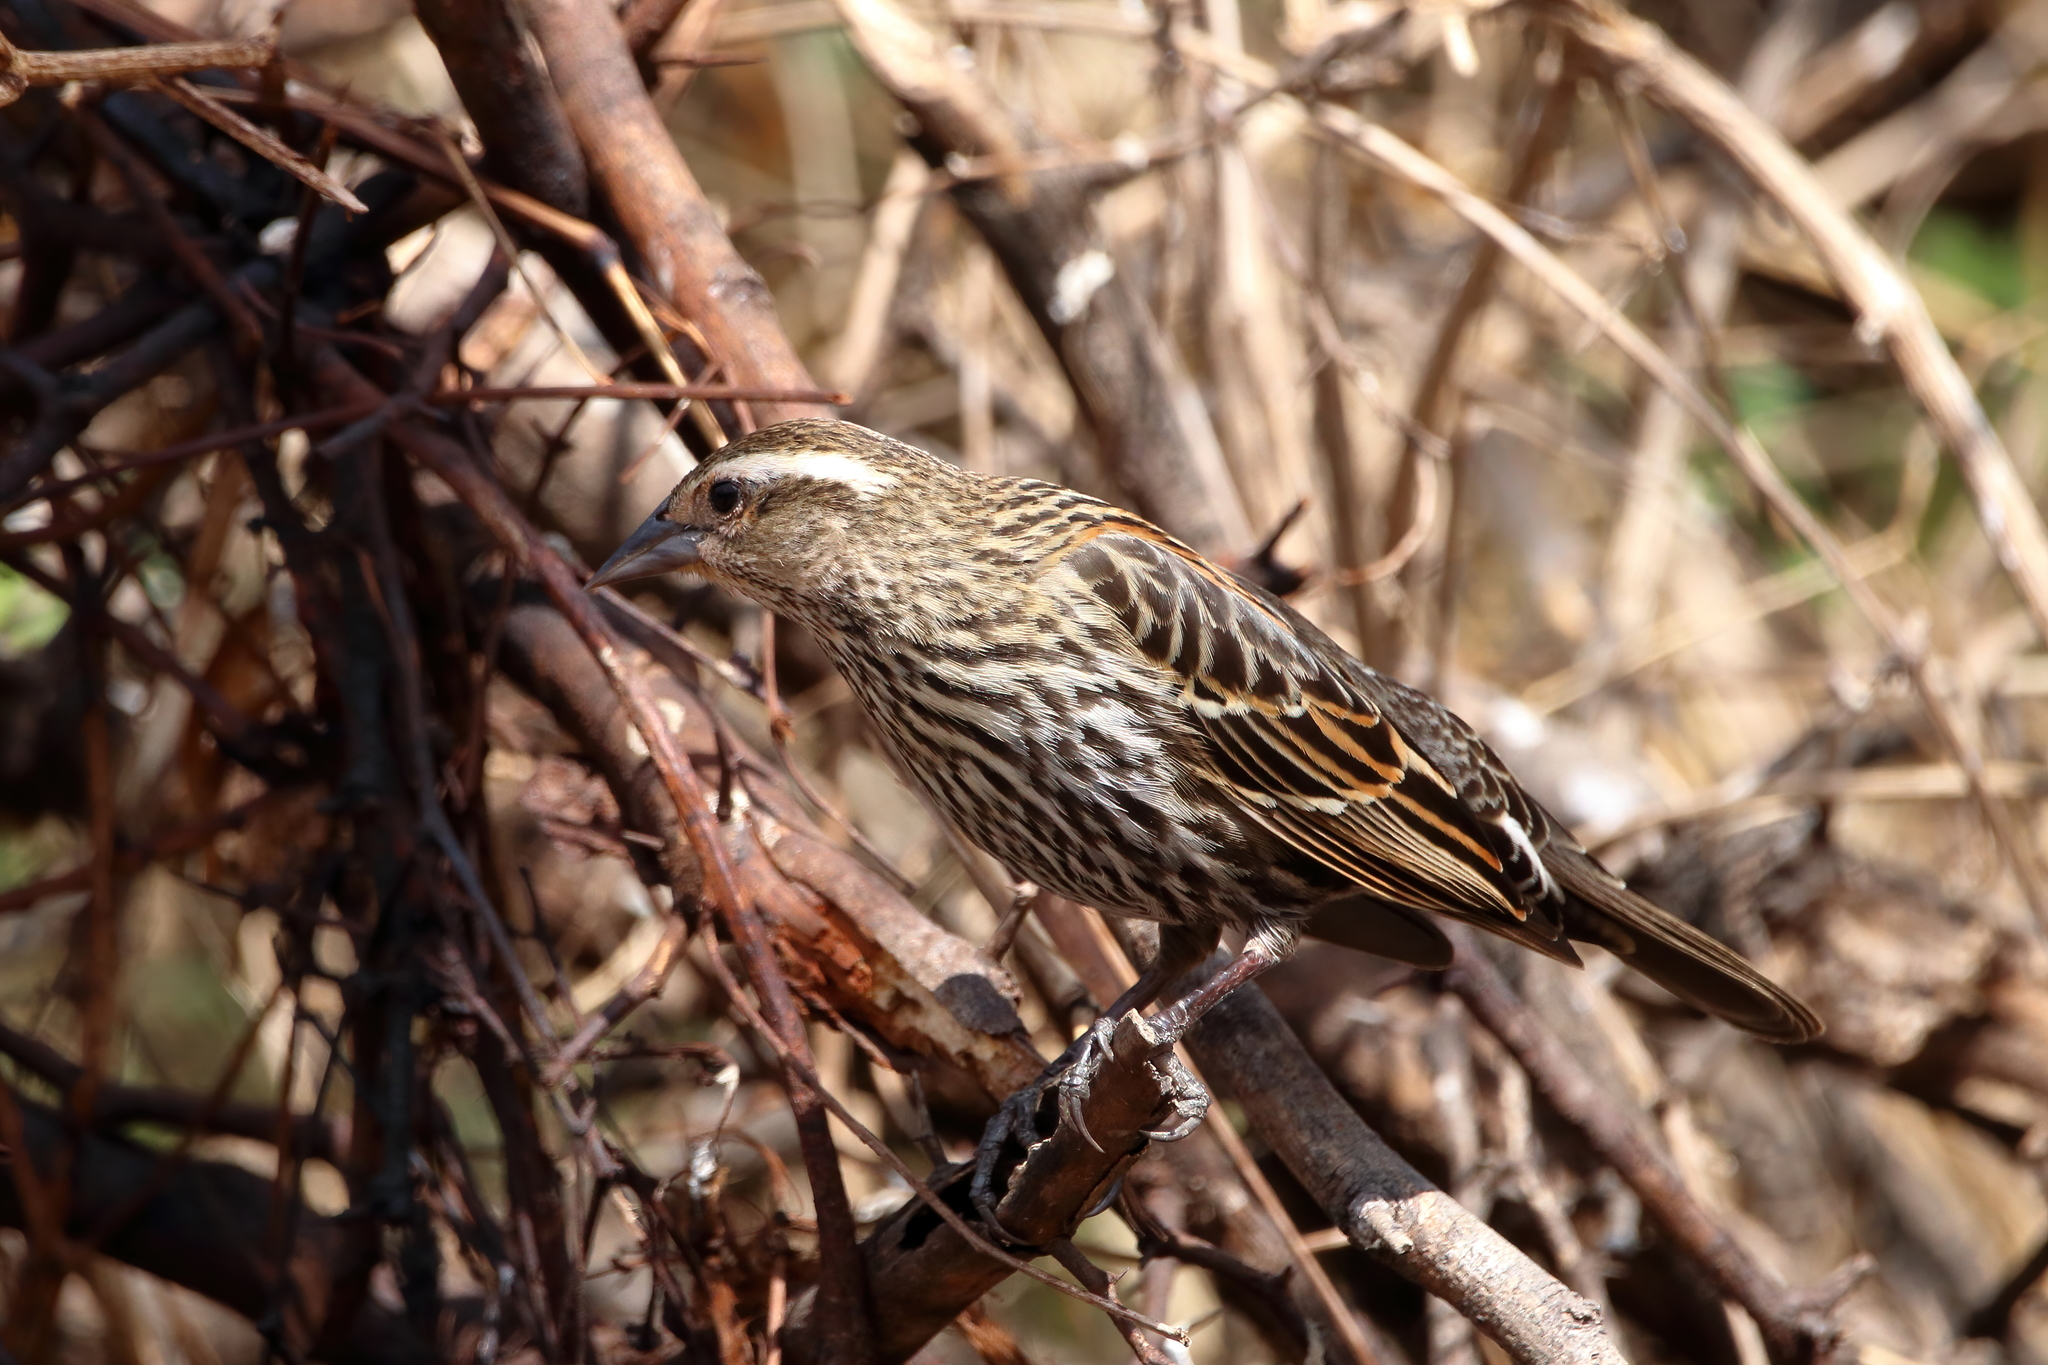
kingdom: Animalia
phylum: Chordata
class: Aves
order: Passeriformes
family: Icteridae
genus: Agelaius
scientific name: Agelaius phoeniceus
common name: Red-winged blackbird
